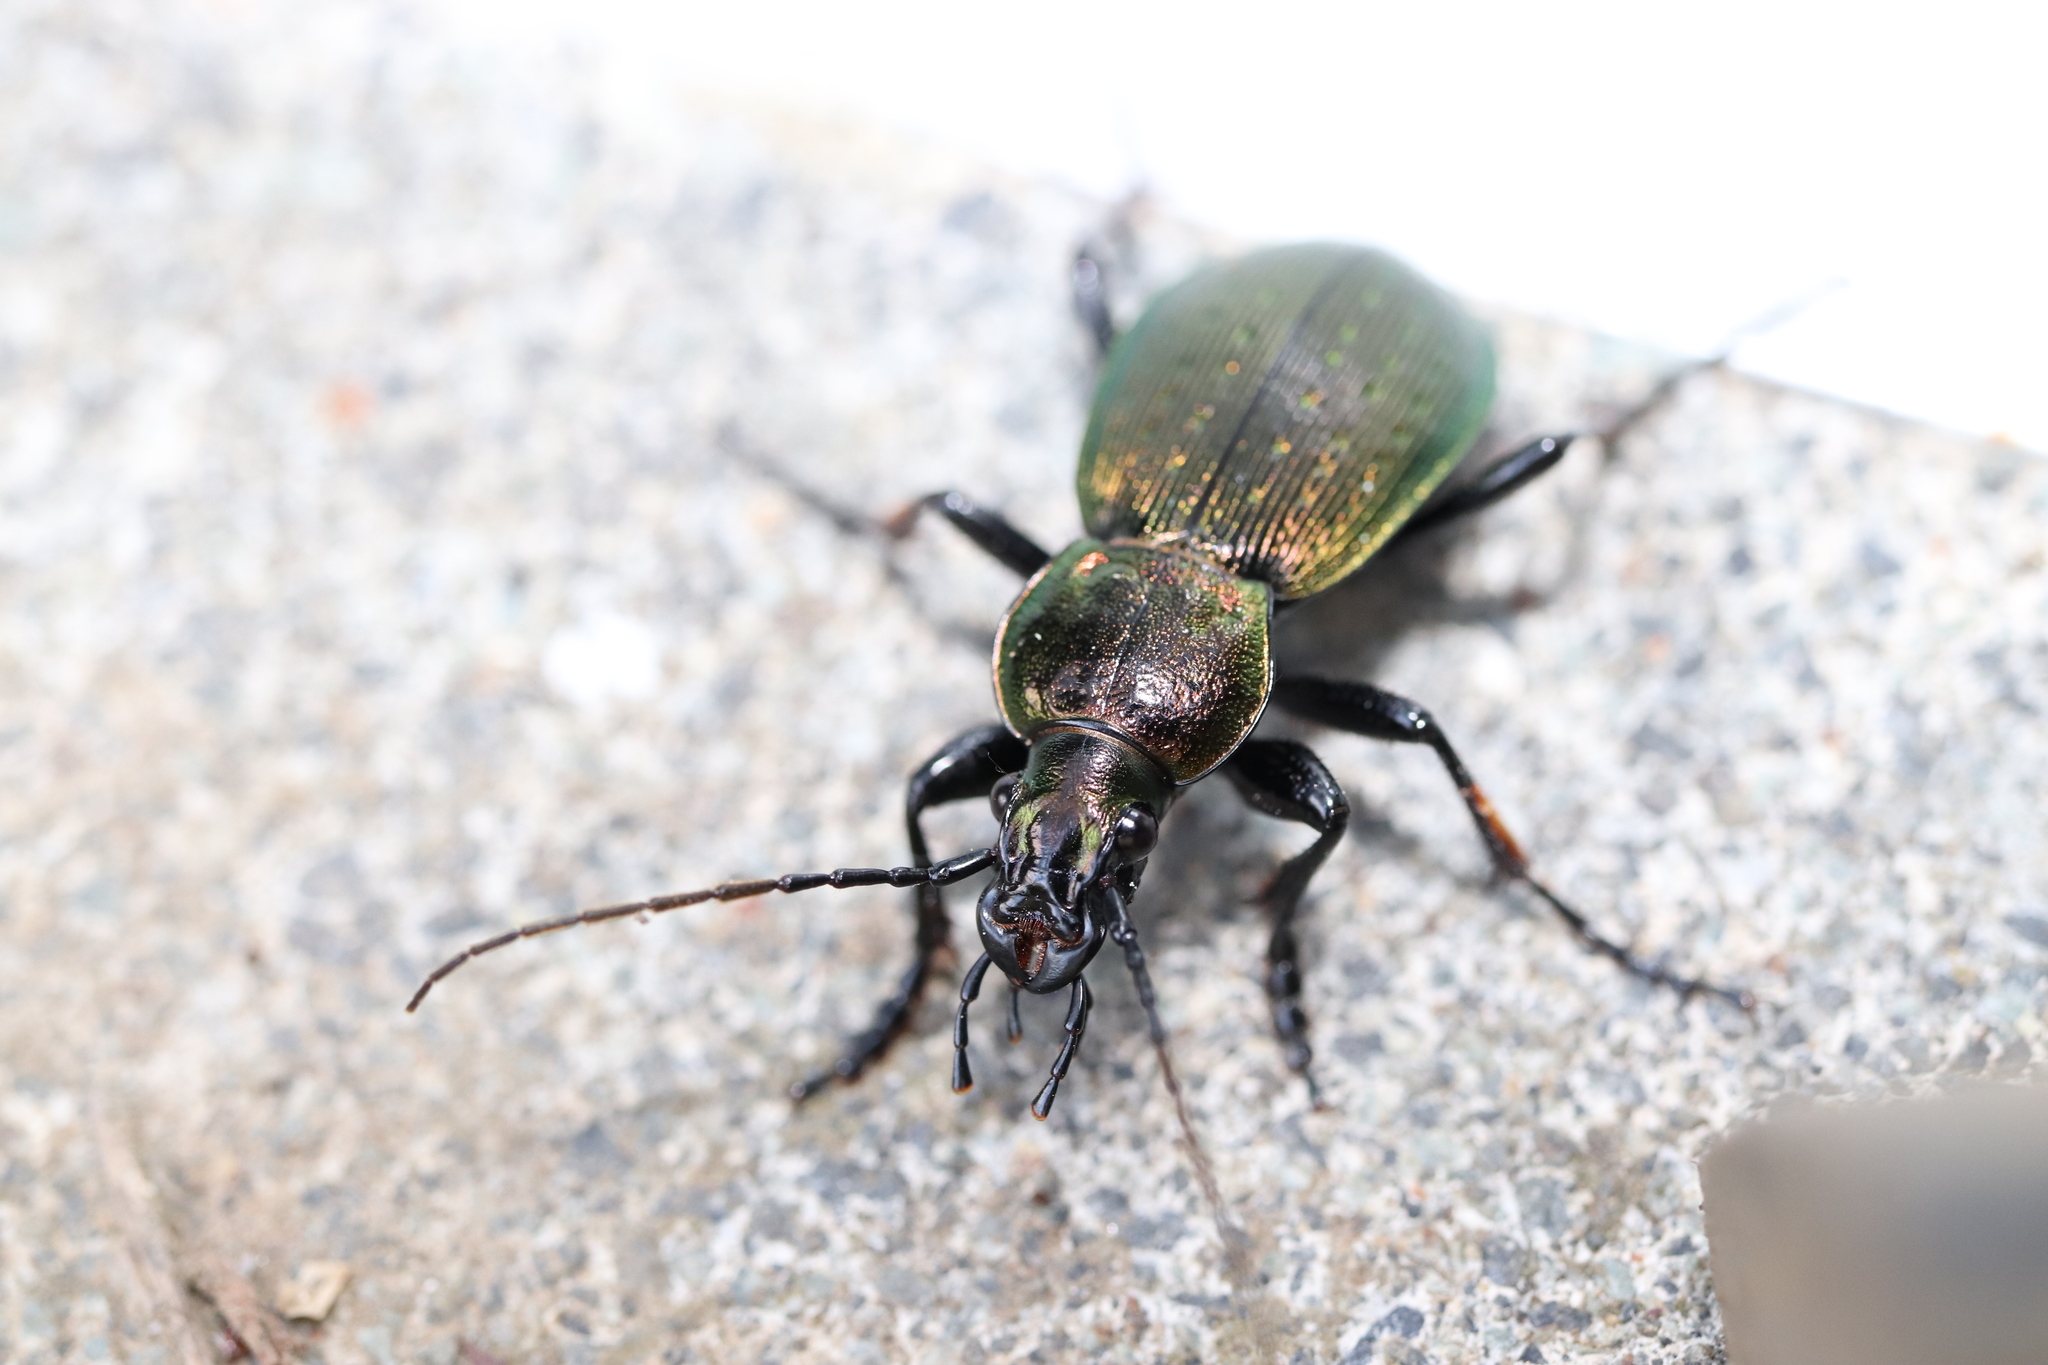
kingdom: Animalia
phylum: Arthropoda
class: Insecta
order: Coleoptera
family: Carabidae
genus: Carabus
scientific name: Carabus insulicola
